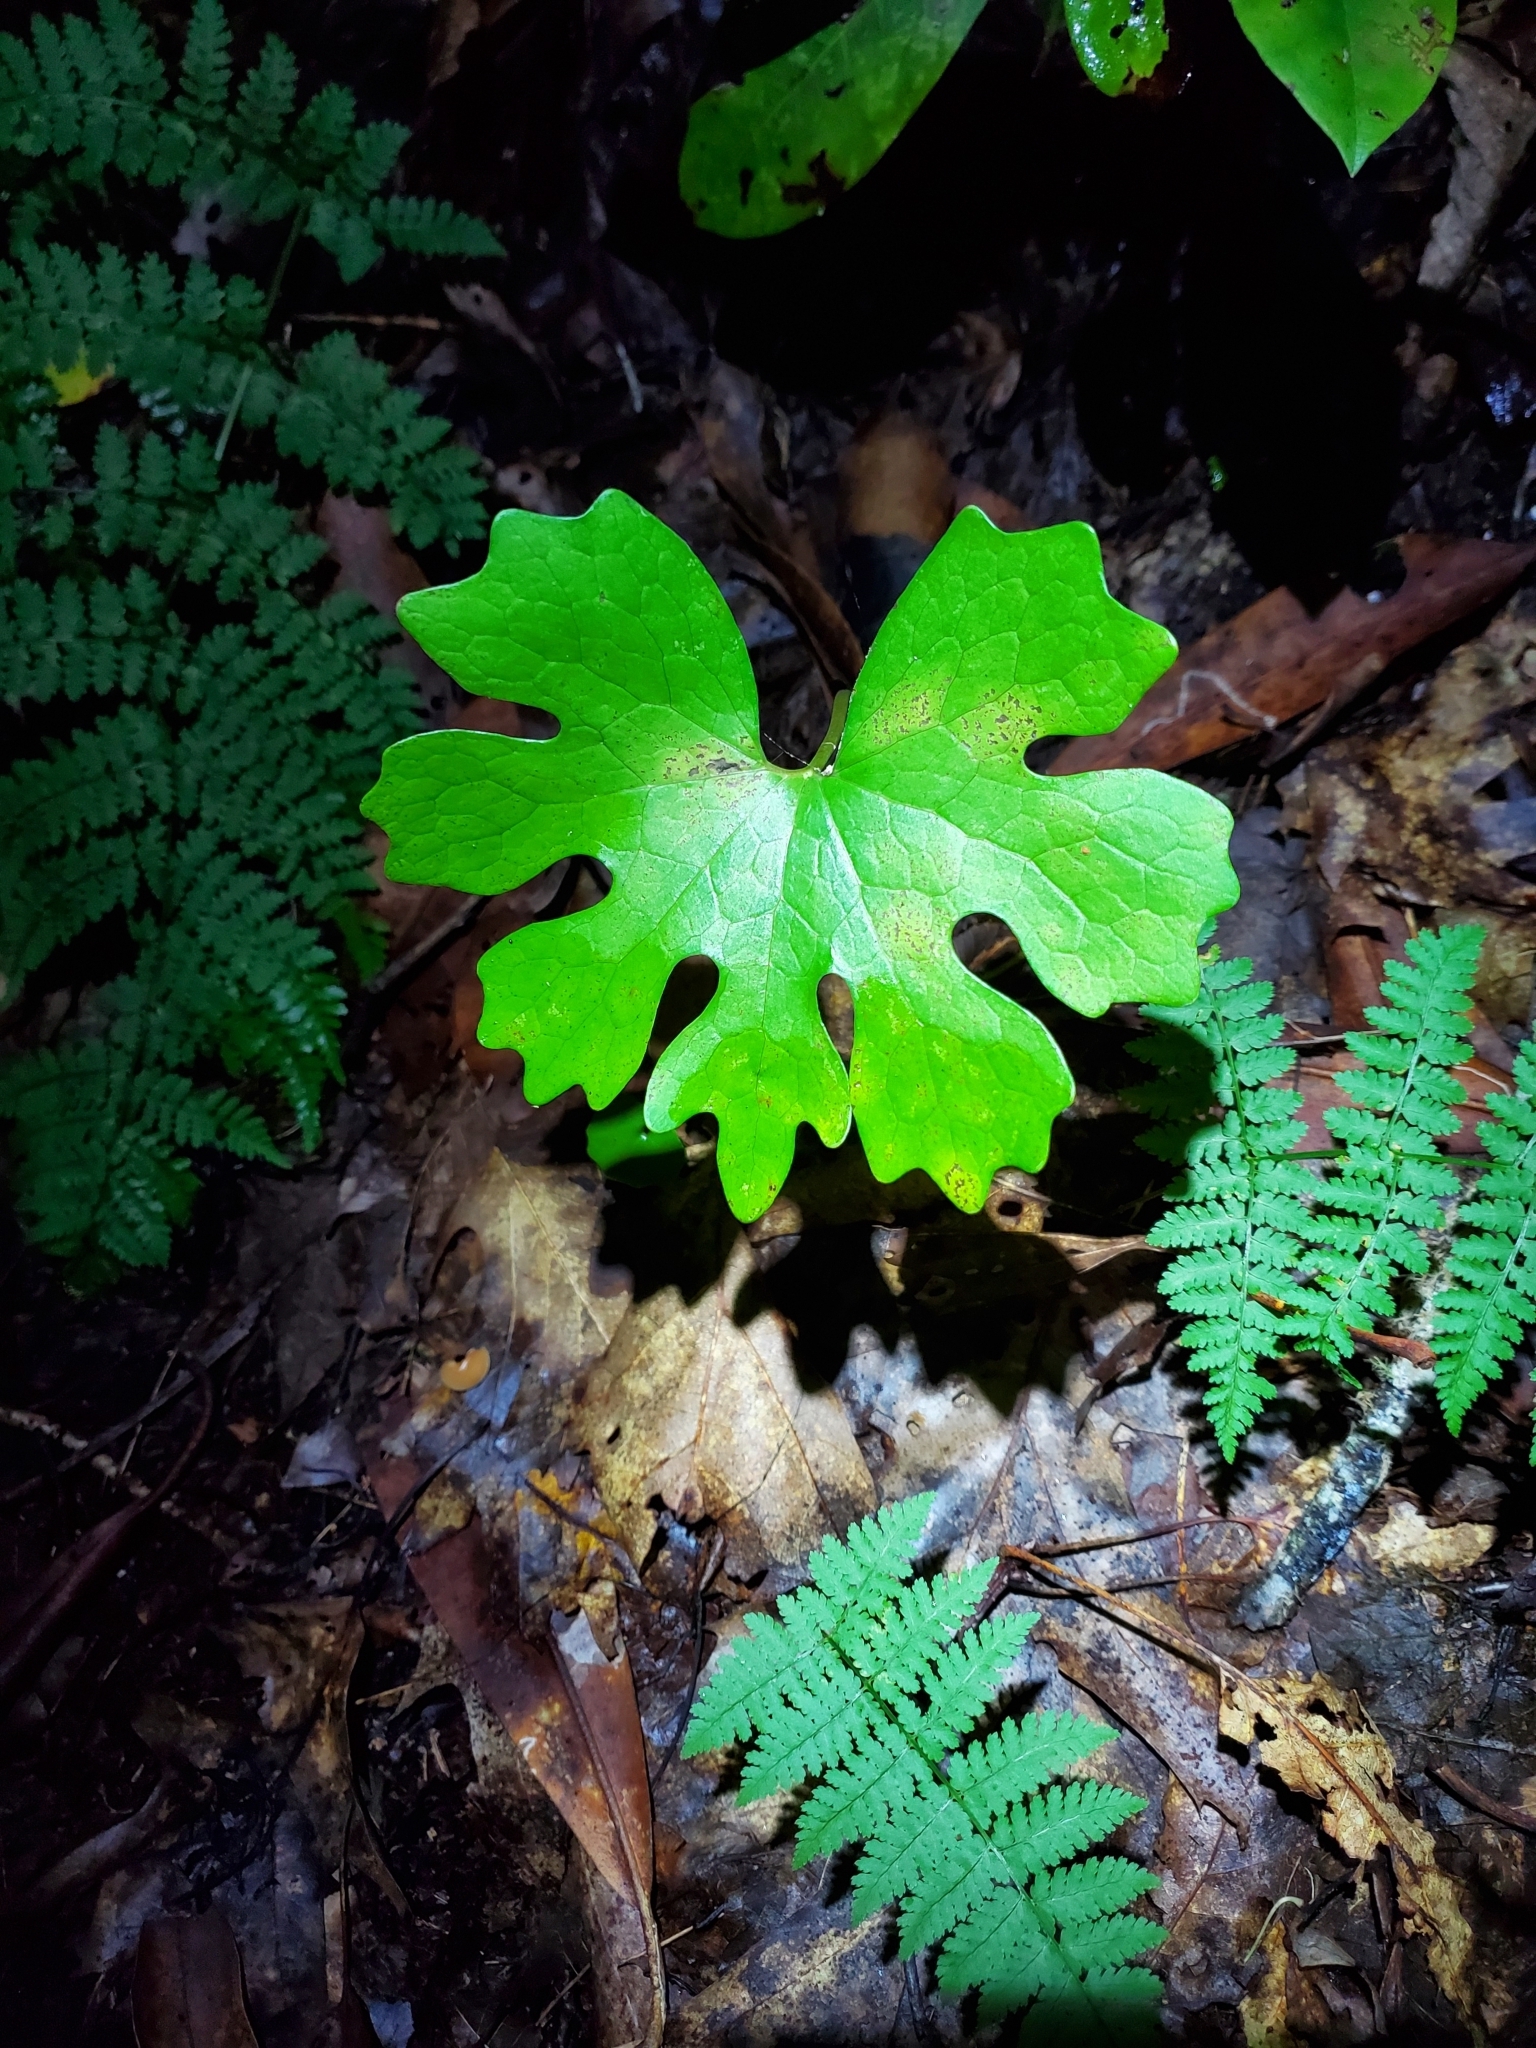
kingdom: Plantae
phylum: Tracheophyta
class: Magnoliopsida
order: Ranunculales
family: Papaveraceae
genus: Sanguinaria
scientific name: Sanguinaria canadensis
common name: Bloodroot
